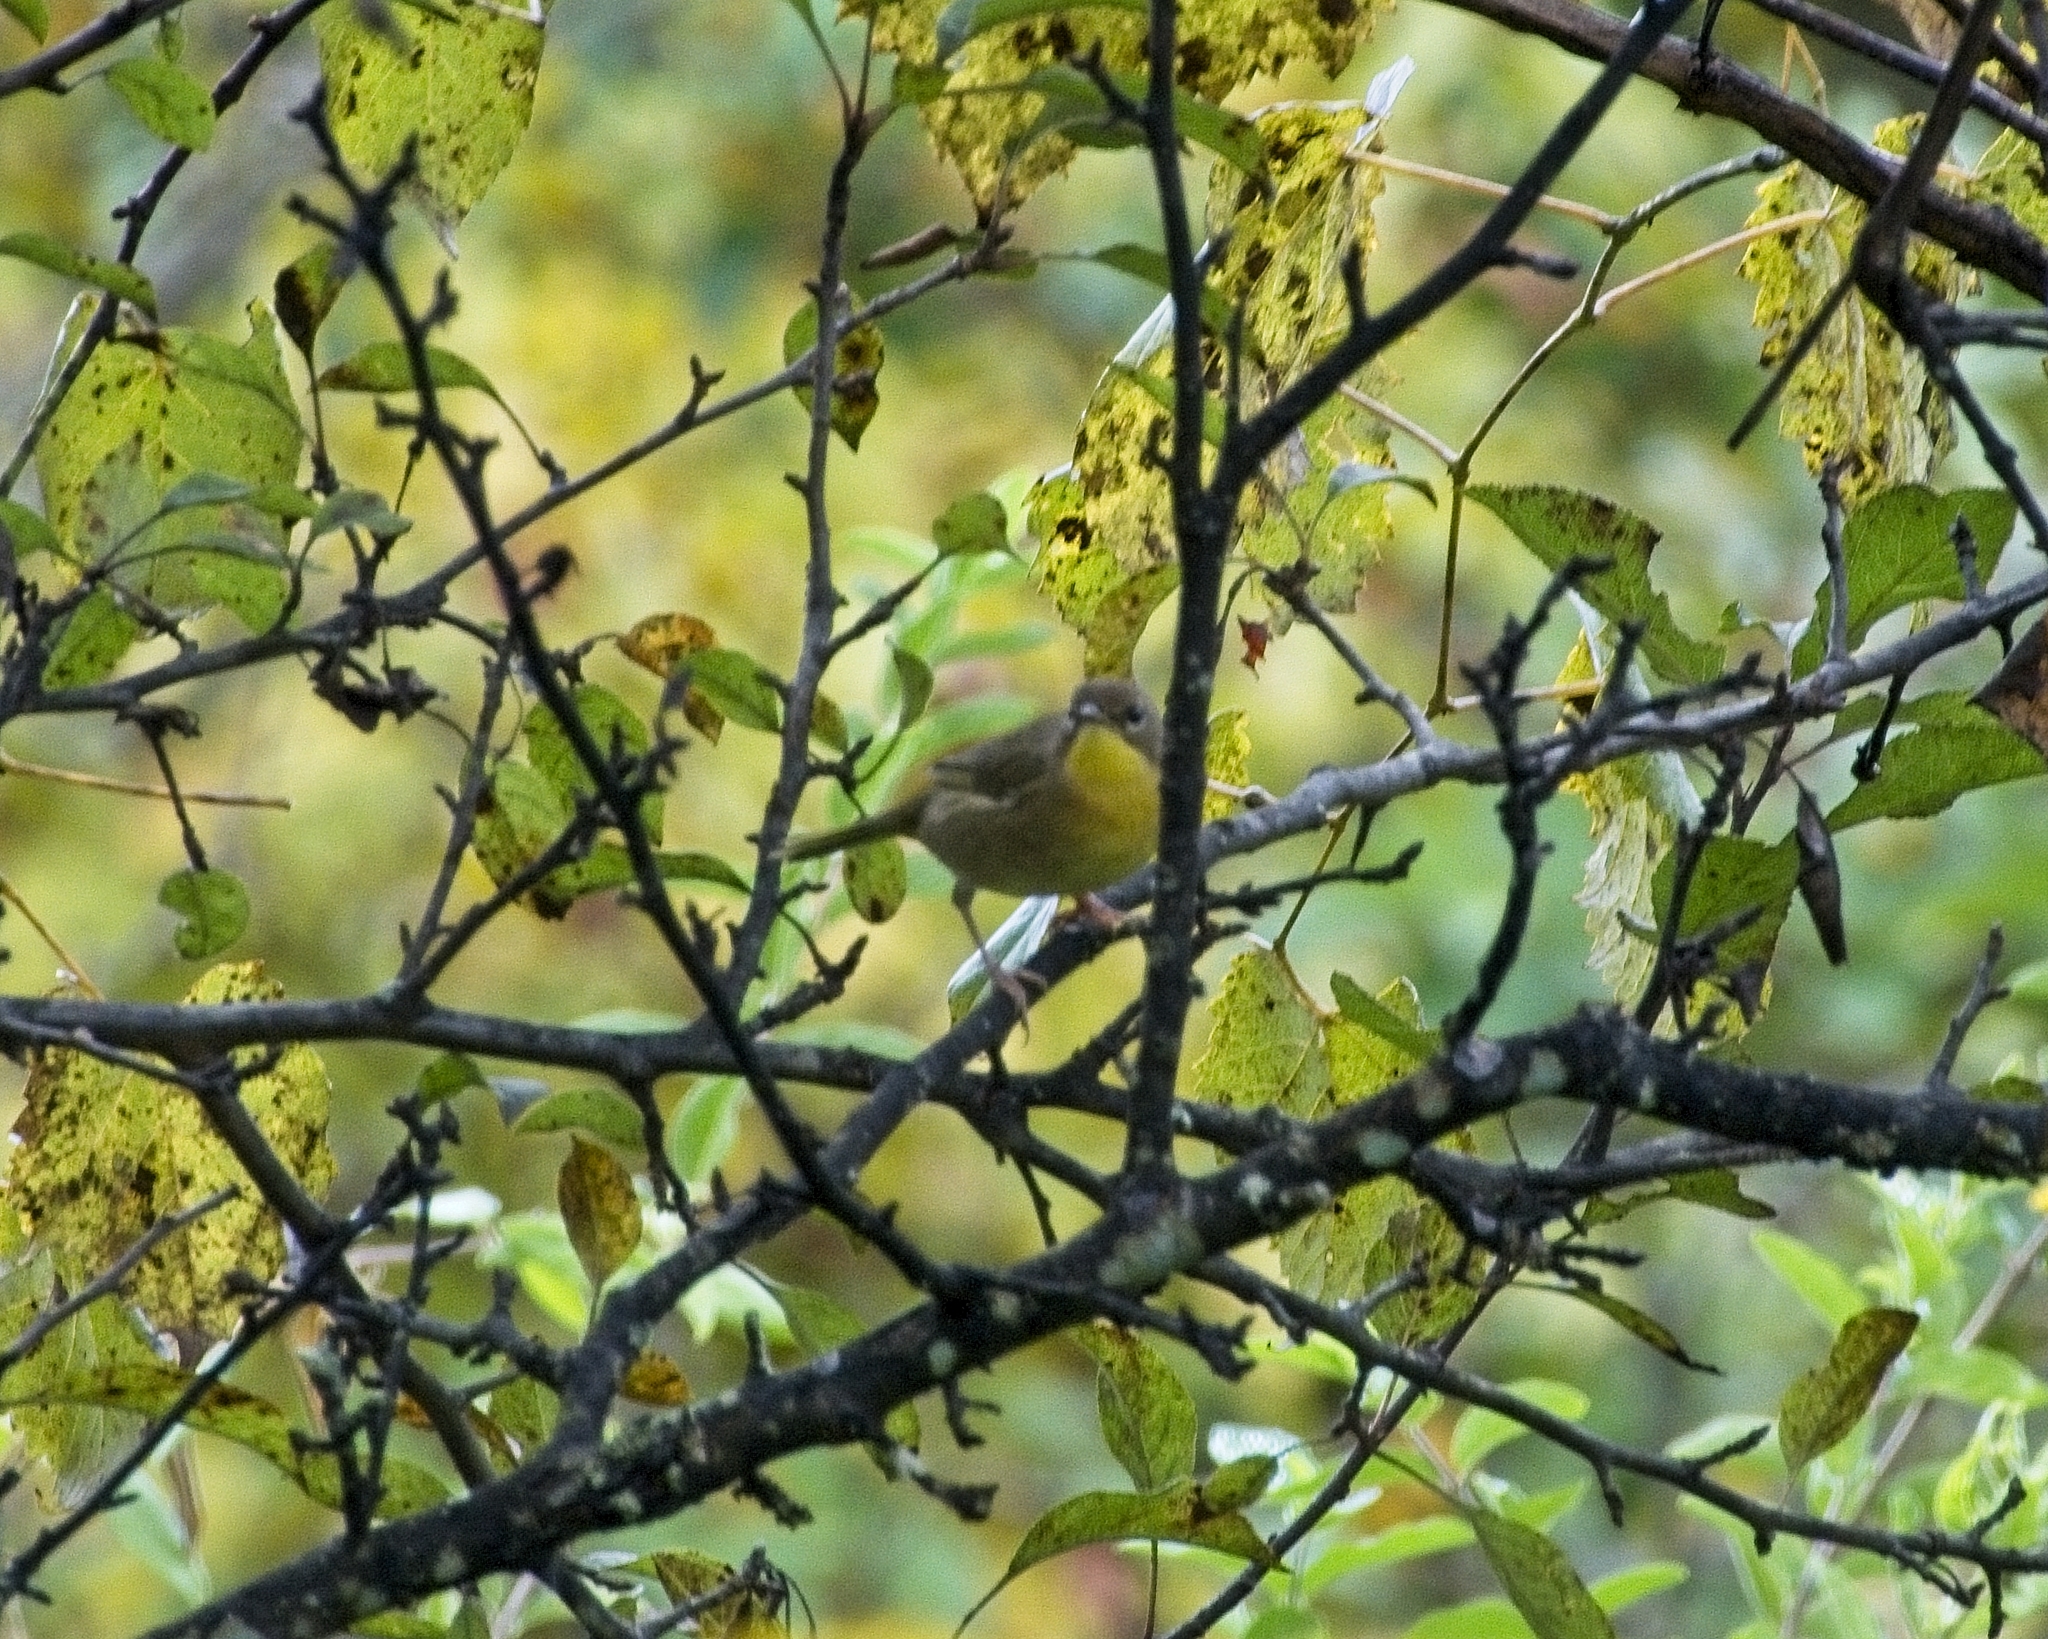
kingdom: Animalia
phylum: Chordata
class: Aves
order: Passeriformes
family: Parulidae
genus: Geothlypis
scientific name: Geothlypis trichas
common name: Common yellowthroat
